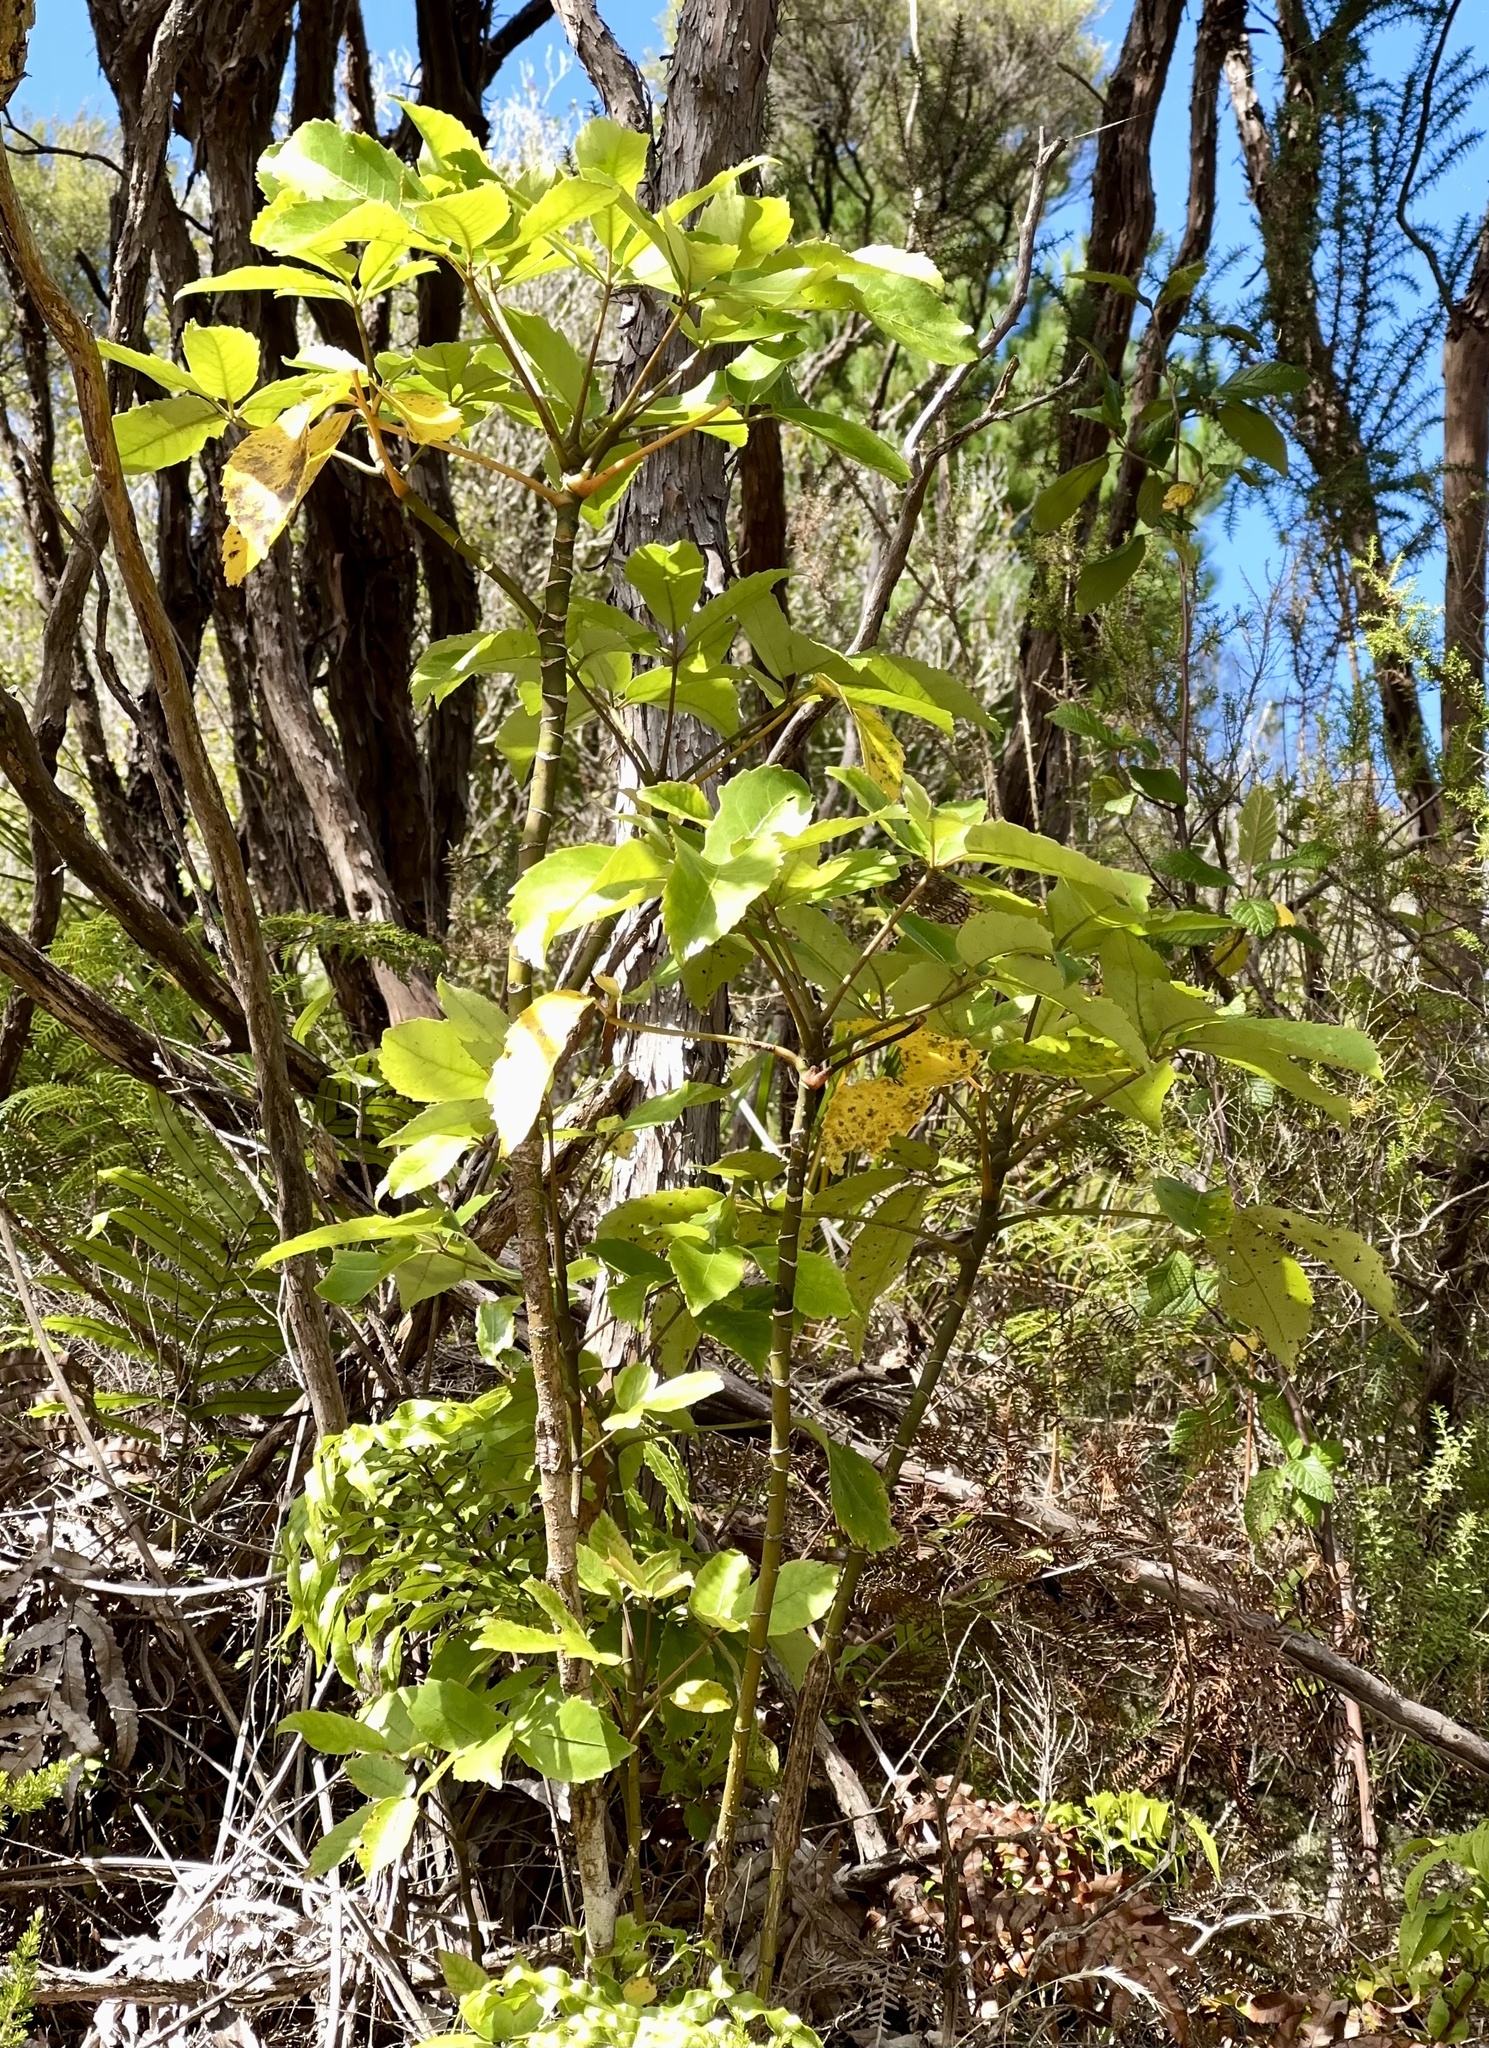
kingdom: Plantae
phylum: Tracheophyta
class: Magnoliopsida
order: Apiales
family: Araliaceae
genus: Neopanax
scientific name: Neopanax arboreus
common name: Five-fingers
